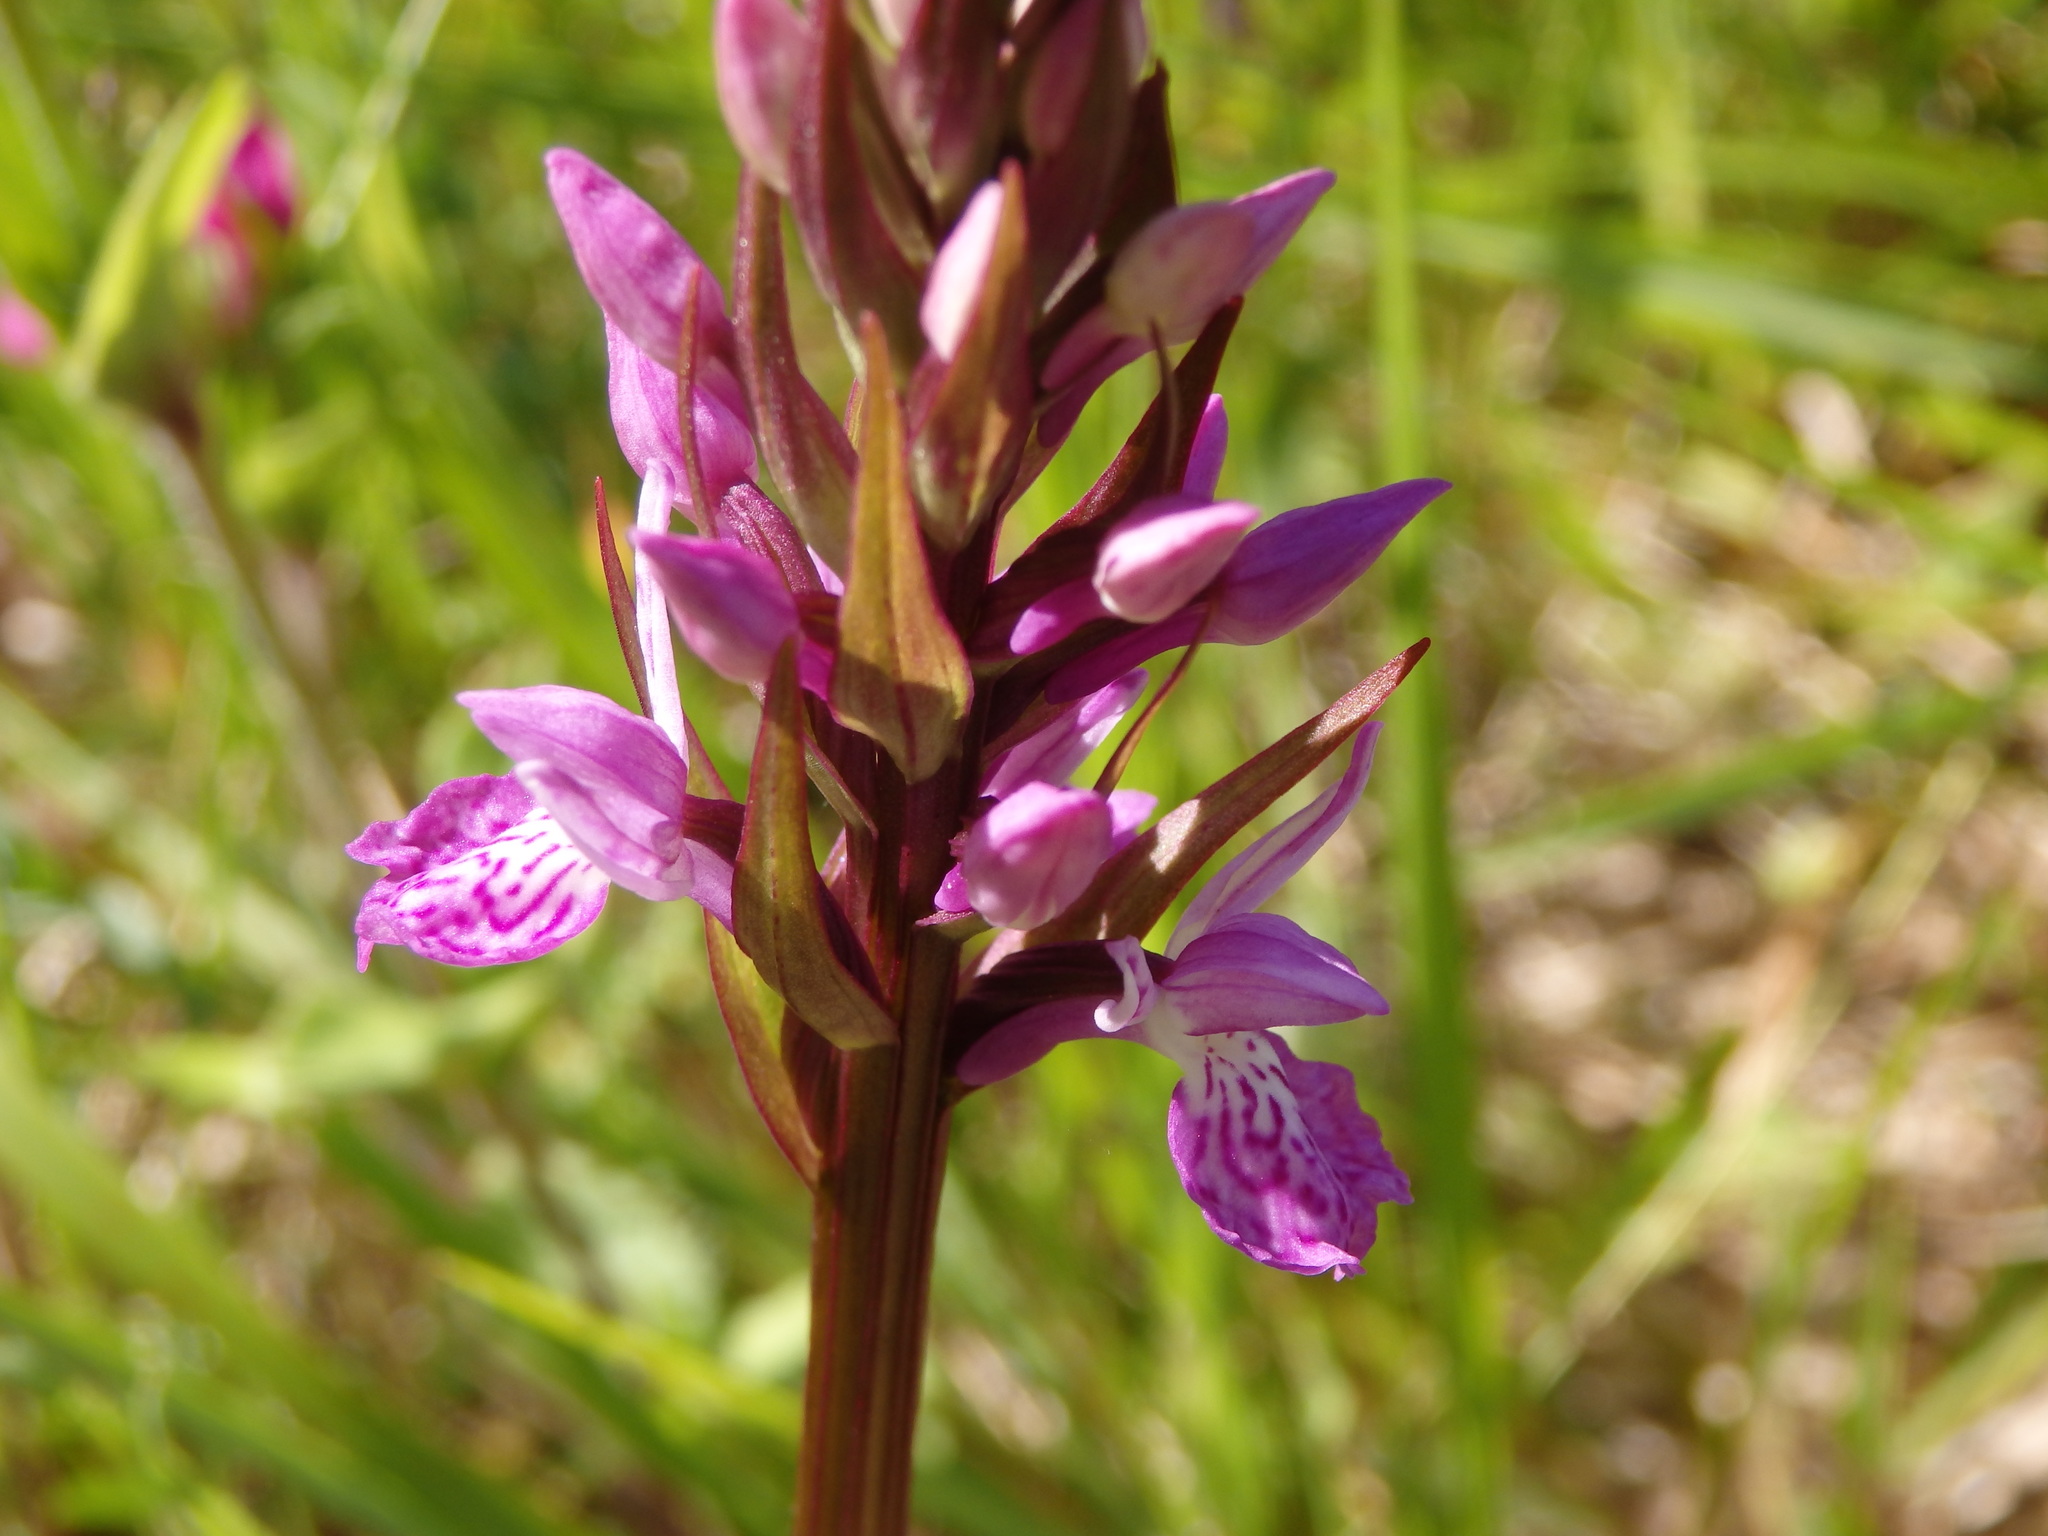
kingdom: Plantae
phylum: Tracheophyta
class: Liliopsida
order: Asparagales
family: Orchidaceae
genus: Dactylorhiza
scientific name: Dactylorhiza maculata
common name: Heath spotted-orchid
